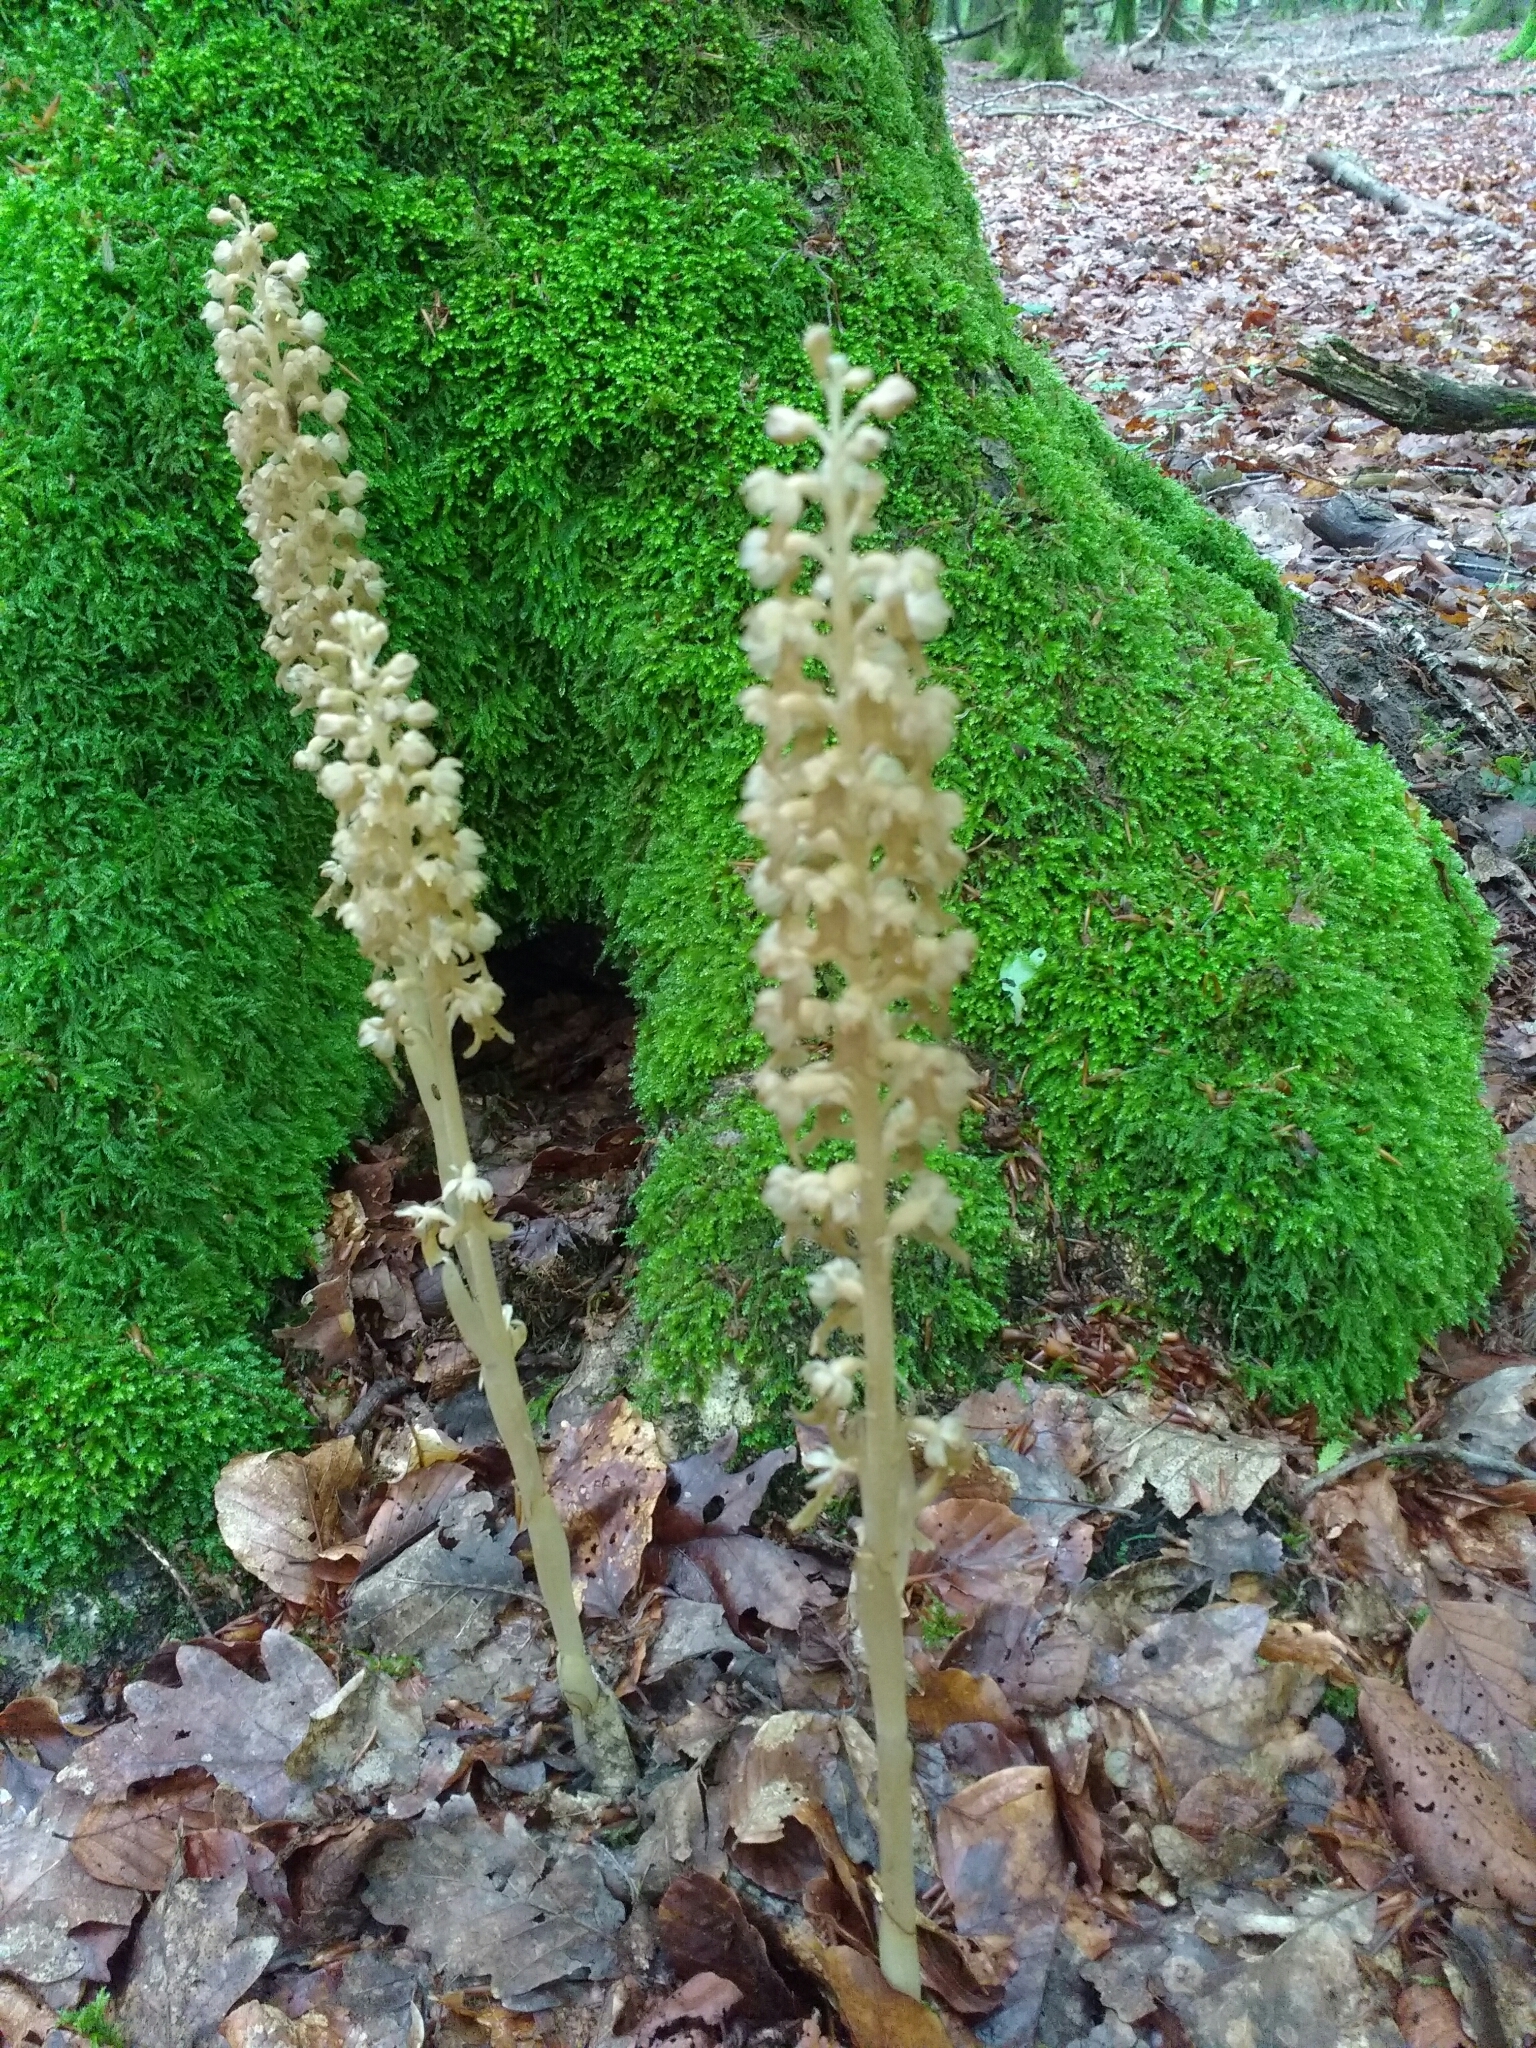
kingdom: Plantae
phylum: Tracheophyta
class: Liliopsida
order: Asparagales
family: Orchidaceae
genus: Neottia
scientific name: Neottia nidus-avis
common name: Bird's-nest orchid
